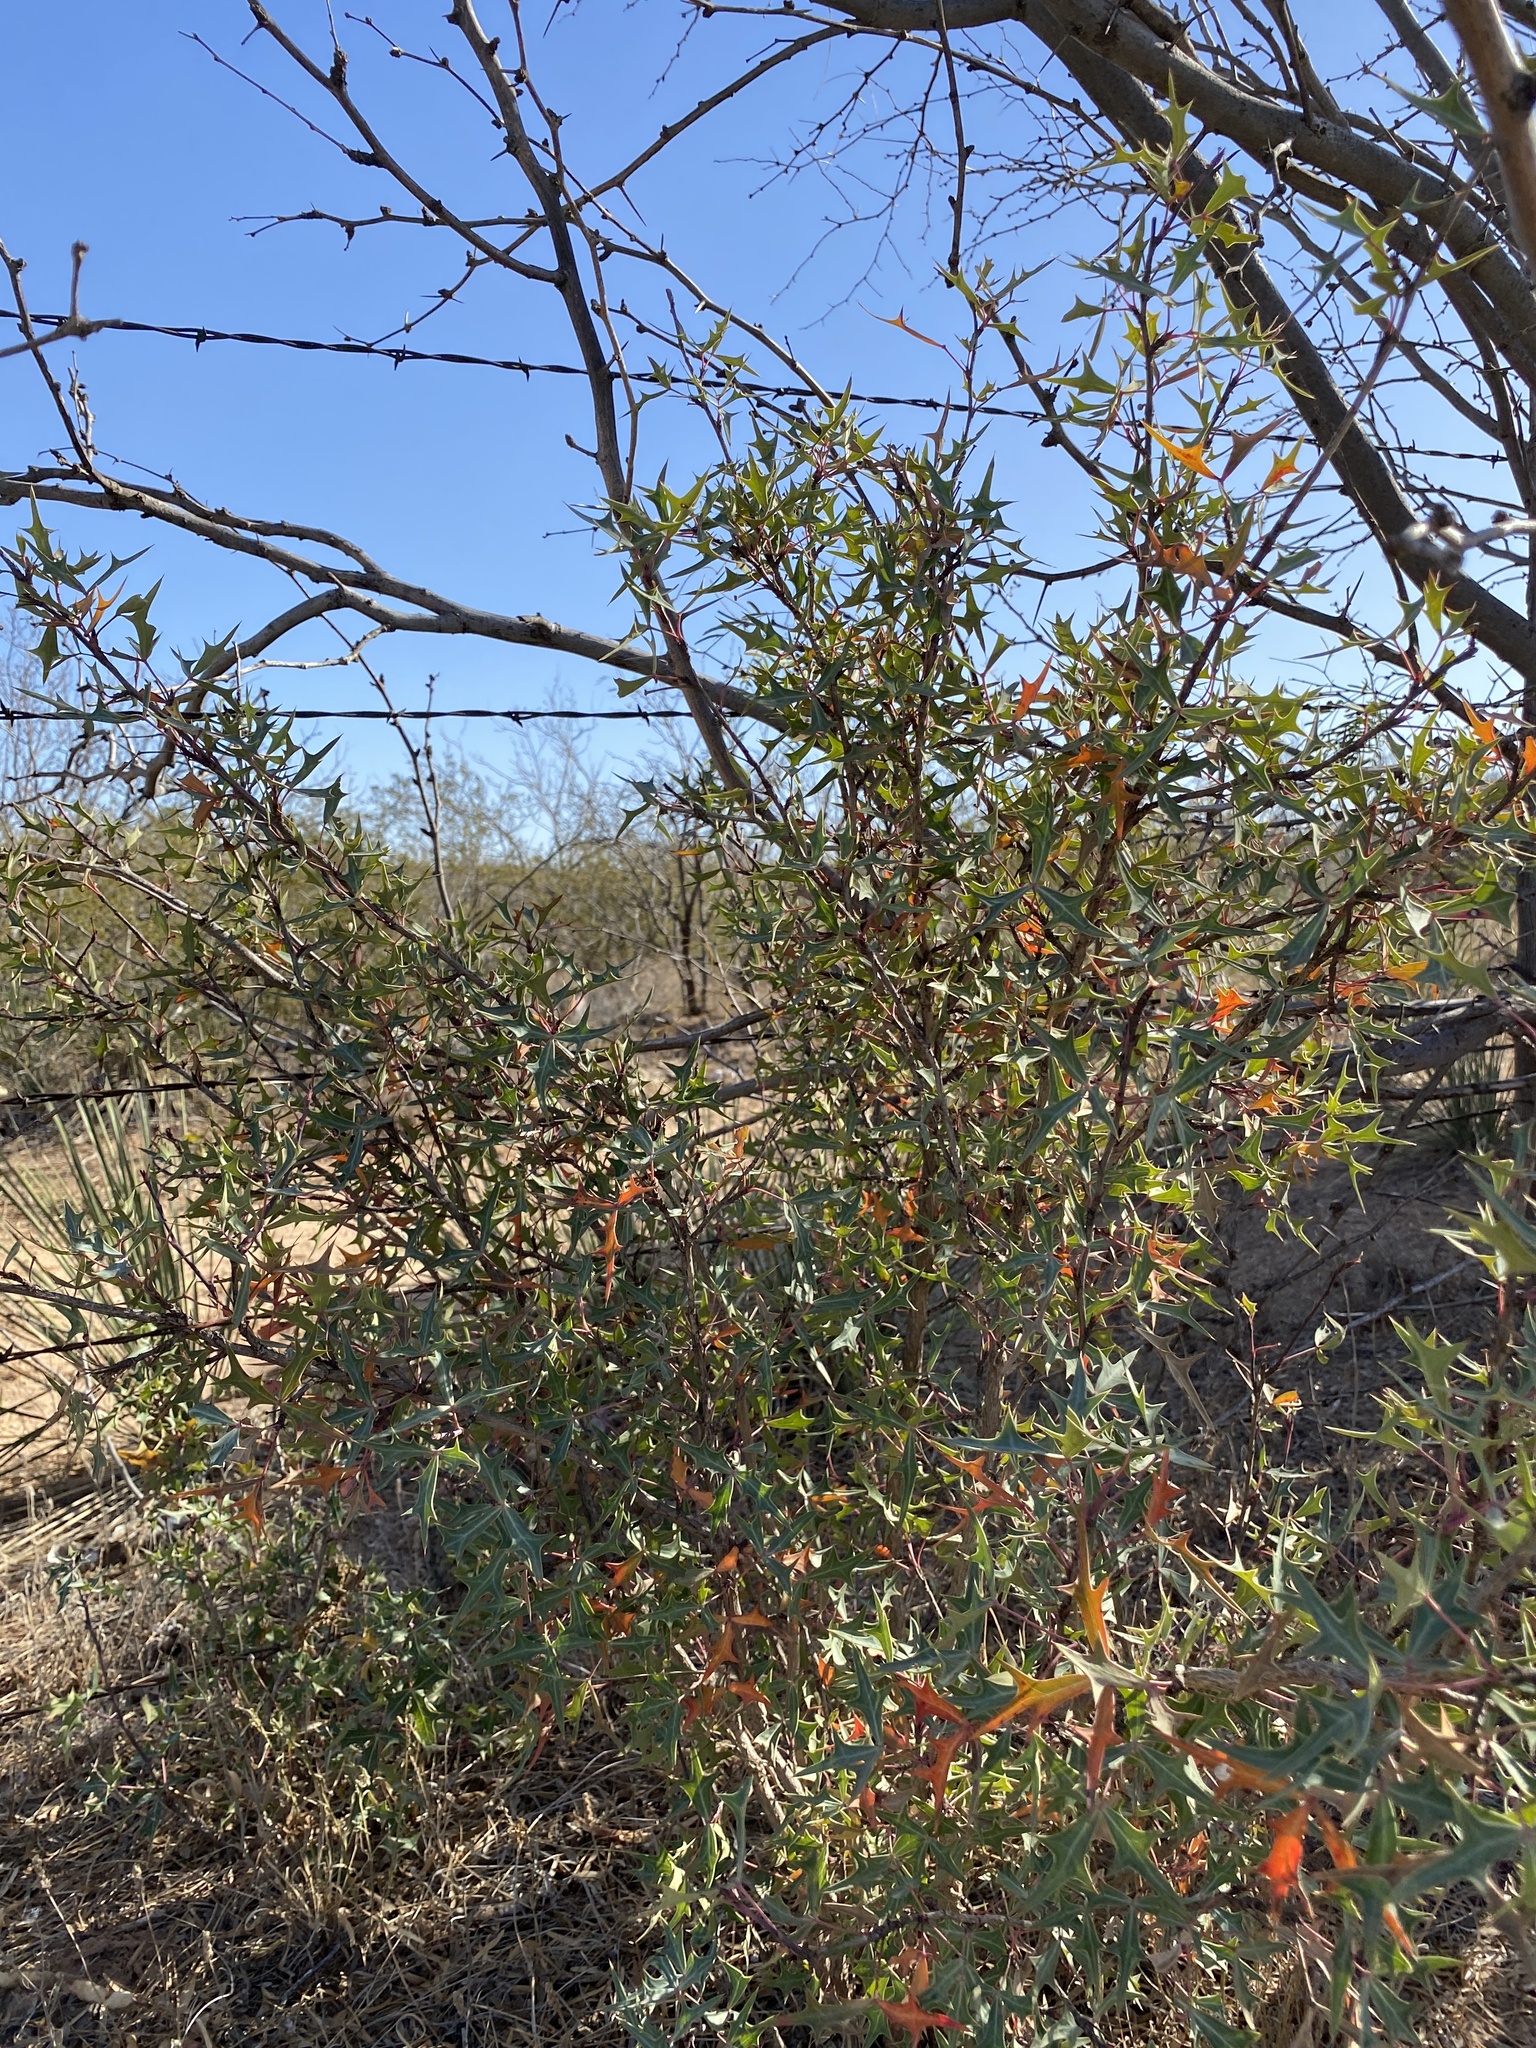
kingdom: Plantae
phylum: Tracheophyta
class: Magnoliopsida
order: Ranunculales
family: Berberidaceae
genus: Alloberberis
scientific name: Alloberberis trifoliolata
